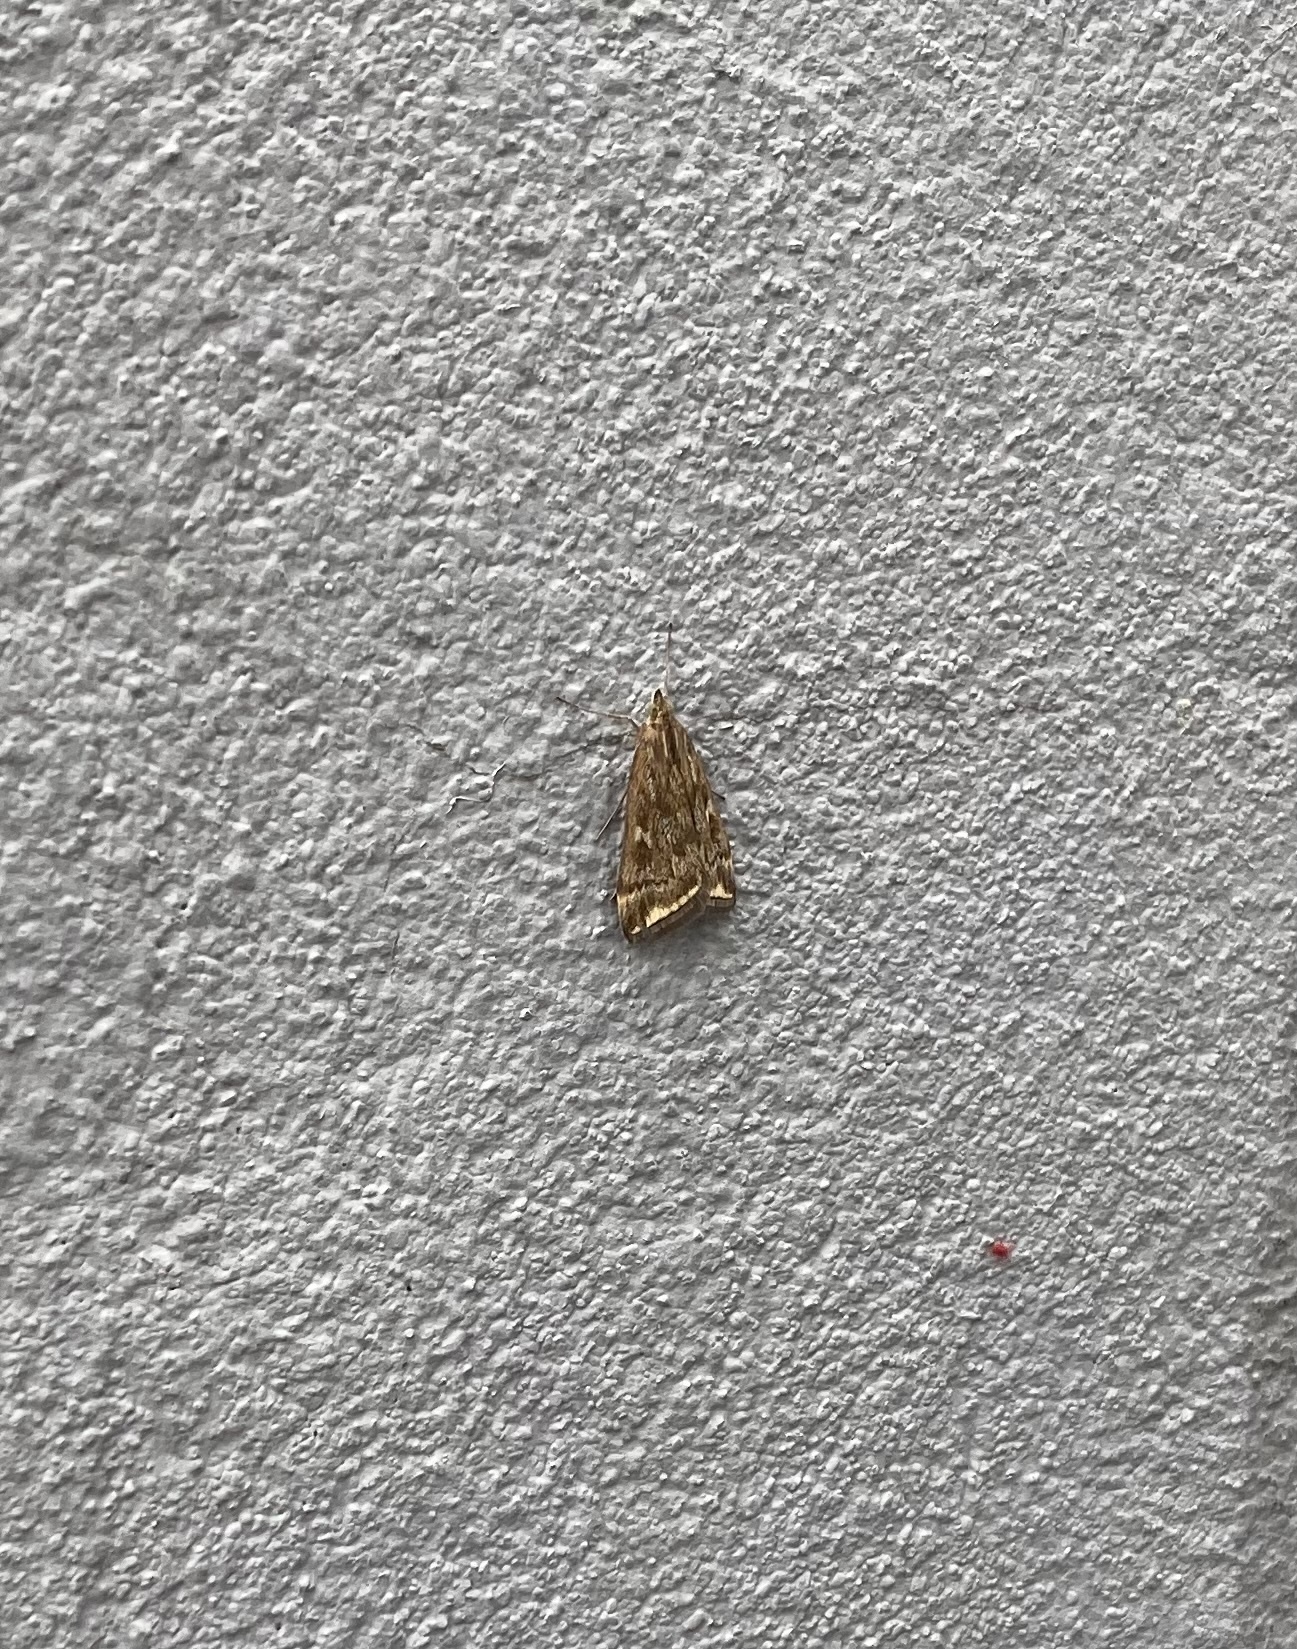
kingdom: Animalia
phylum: Arthropoda
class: Insecta
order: Lepidoptera
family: Crambidae
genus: Loxostege
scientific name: Loxostege sticticalis
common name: Crambid moth
